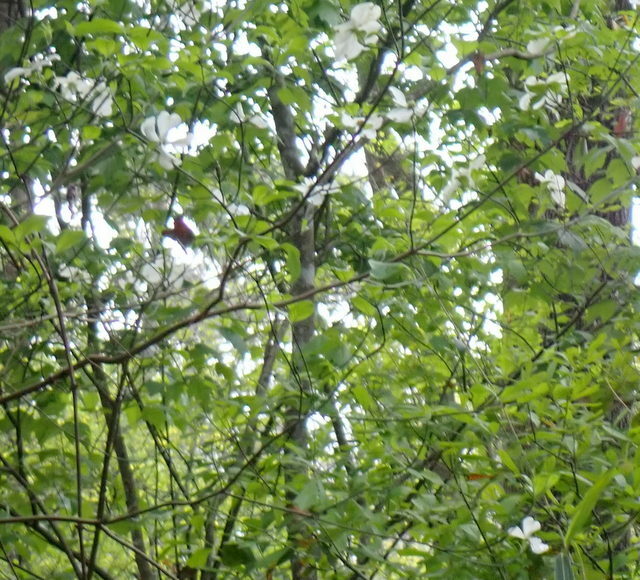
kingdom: Plantae
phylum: Tracheophyta
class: Magnoliopsida
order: Cornales
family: Cornaceae
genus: Cornus
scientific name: Cornus florida
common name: Flowering dogwood
